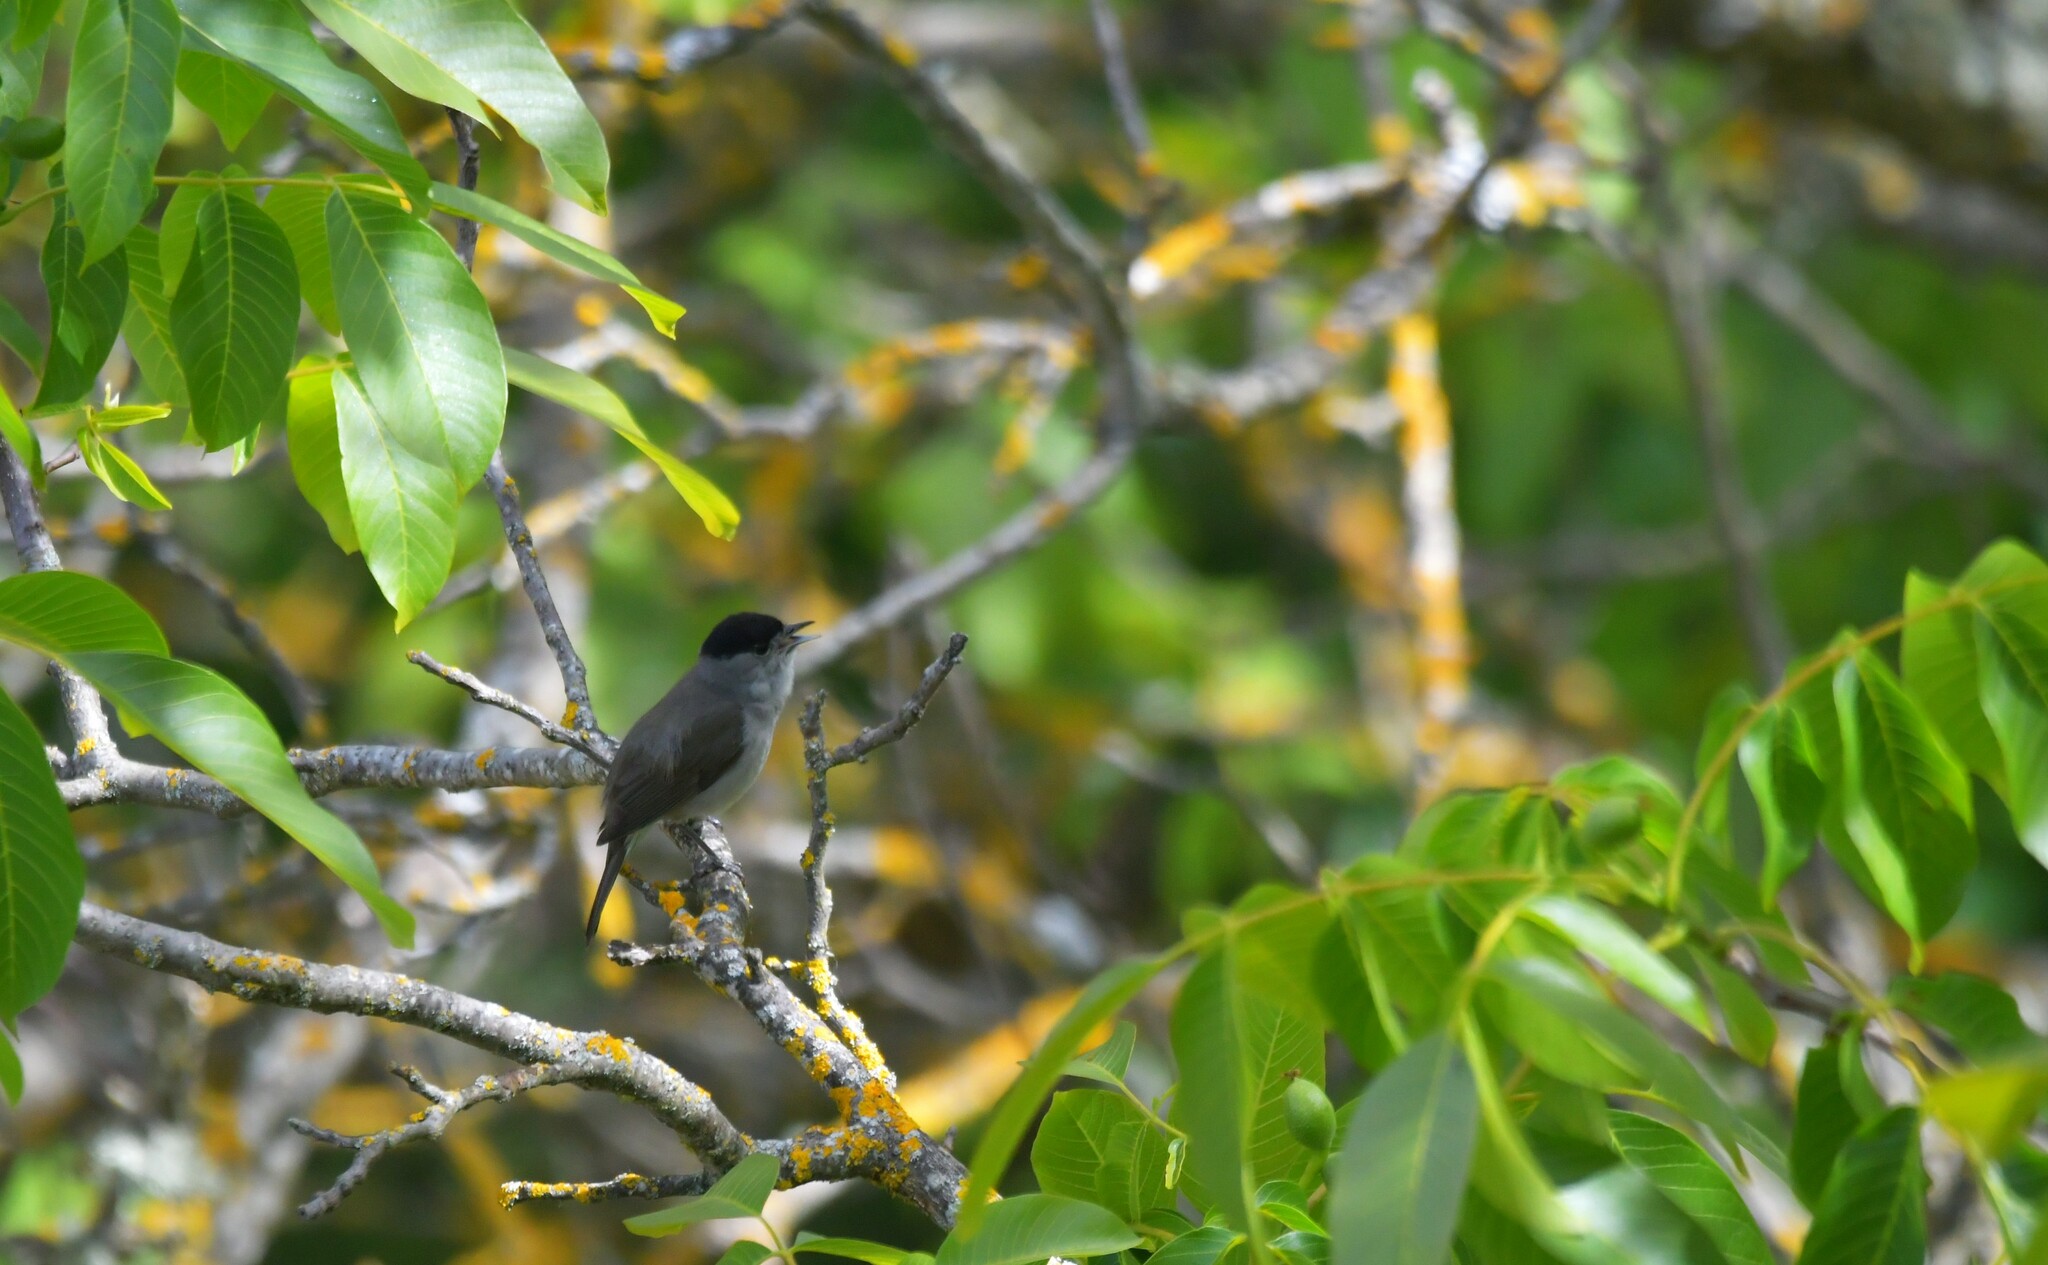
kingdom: Animalia
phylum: Chordata
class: Aves
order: Passeriformes
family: Sylviidae
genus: Sylvia
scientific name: Sylvia atricapilla
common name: Eurasian blackcap
